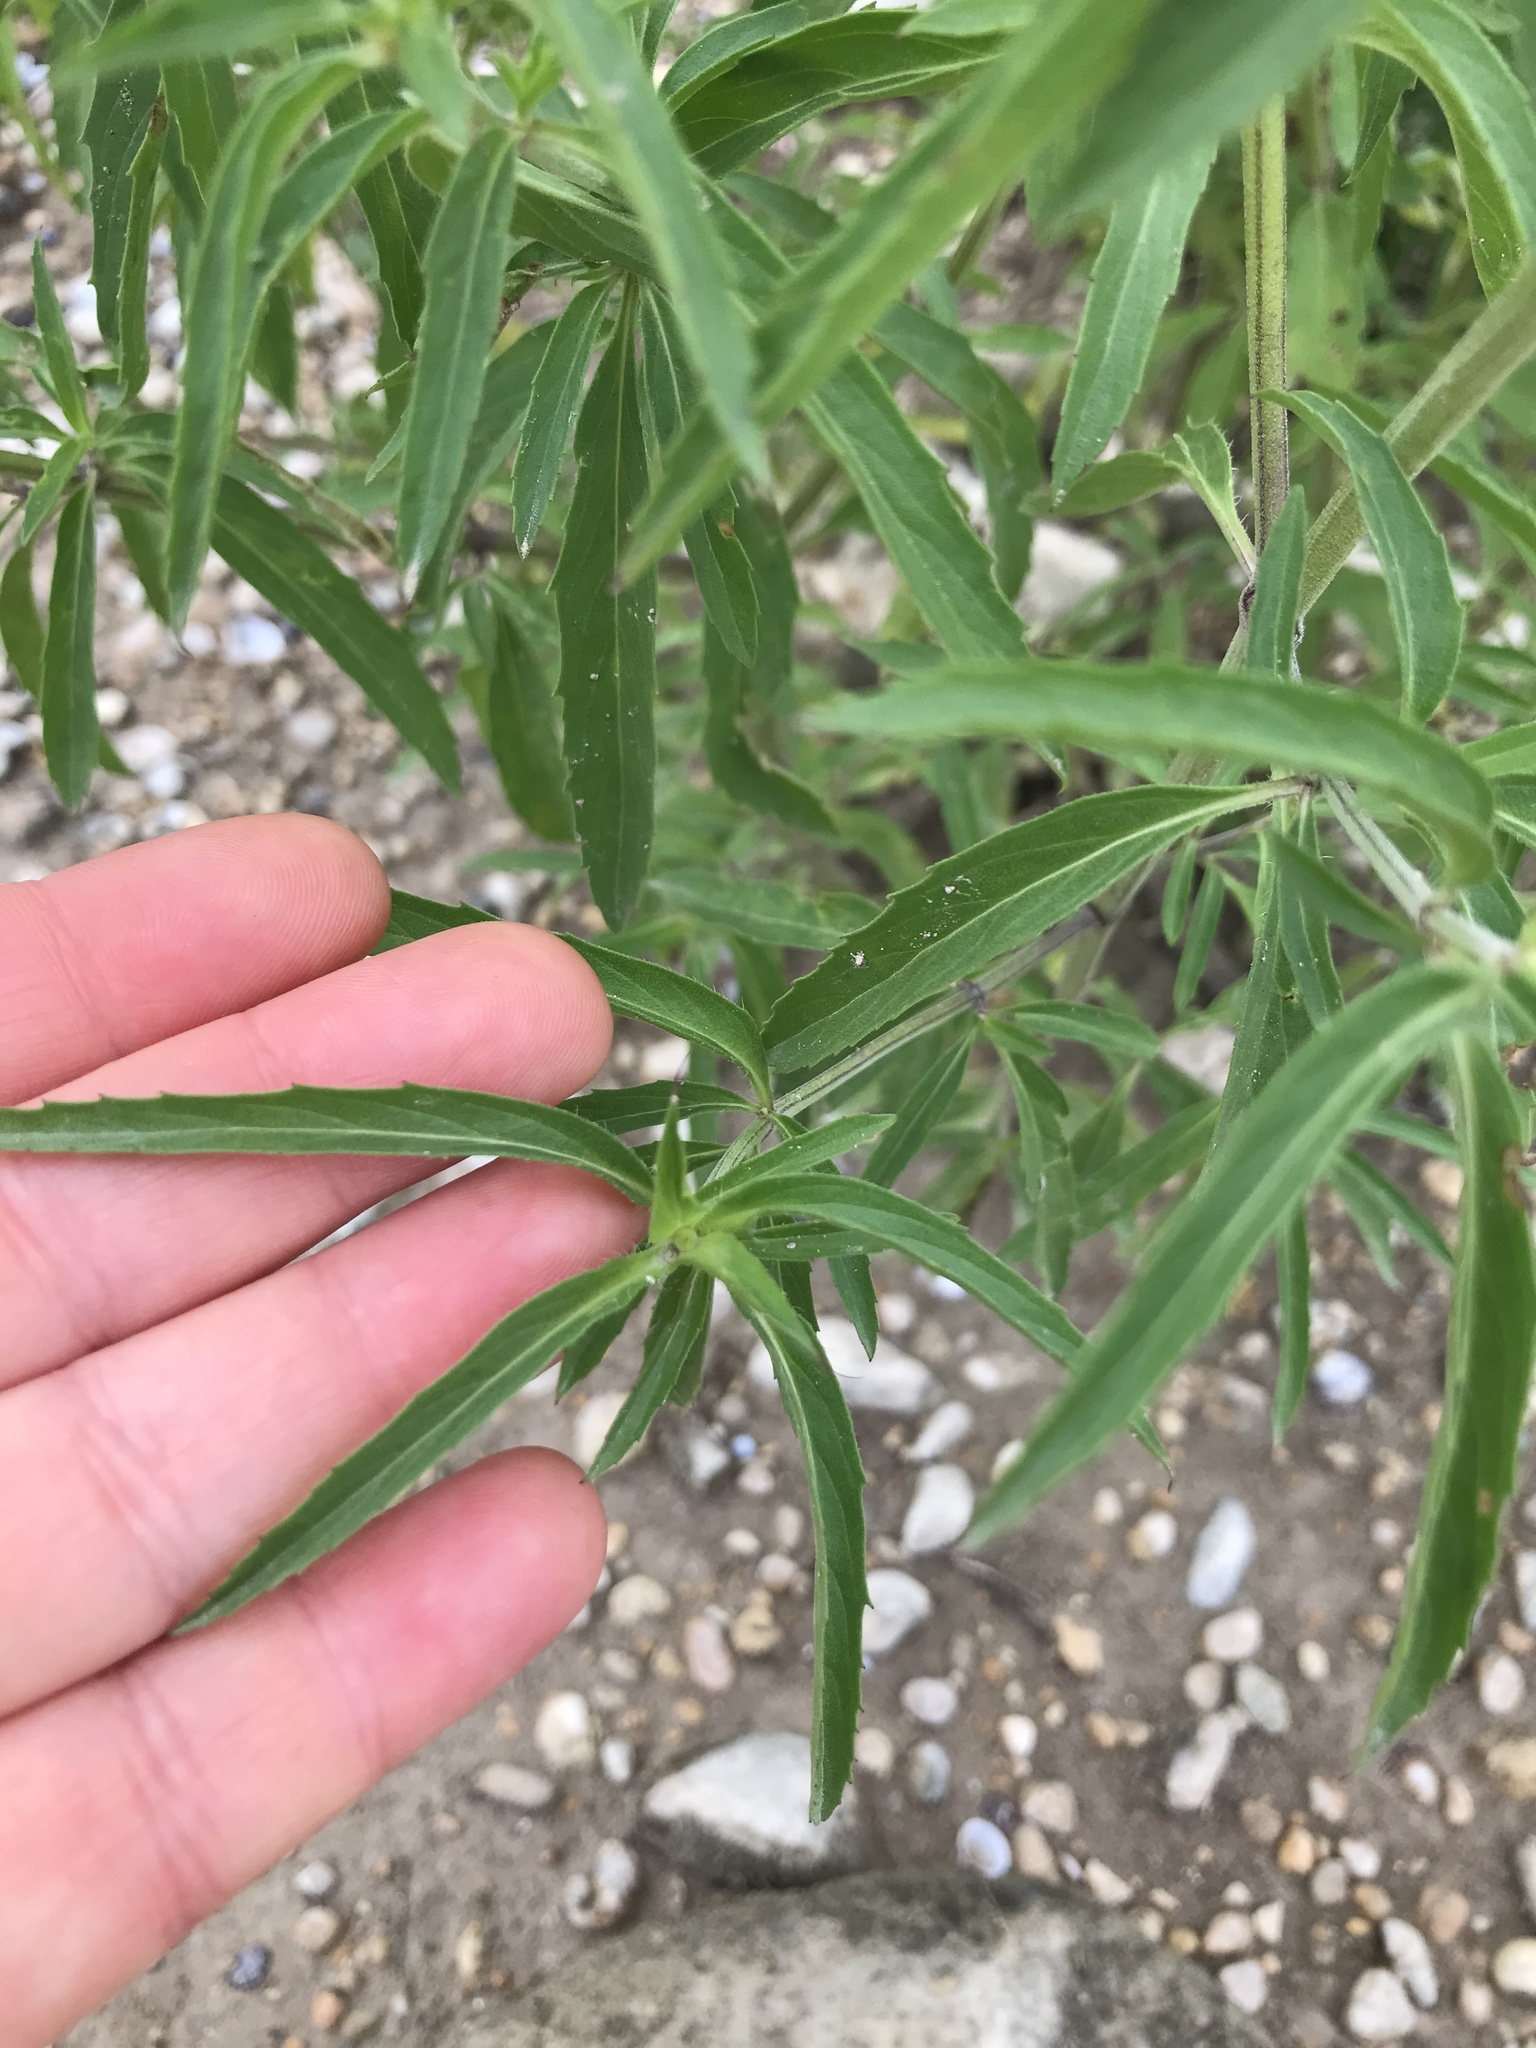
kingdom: Plantae
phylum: Tracheophyta
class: Magnoliopsida
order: Lamiales
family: Lamiaceae
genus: Monarda
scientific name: Monarda citriodora
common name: Lemon beebalm
